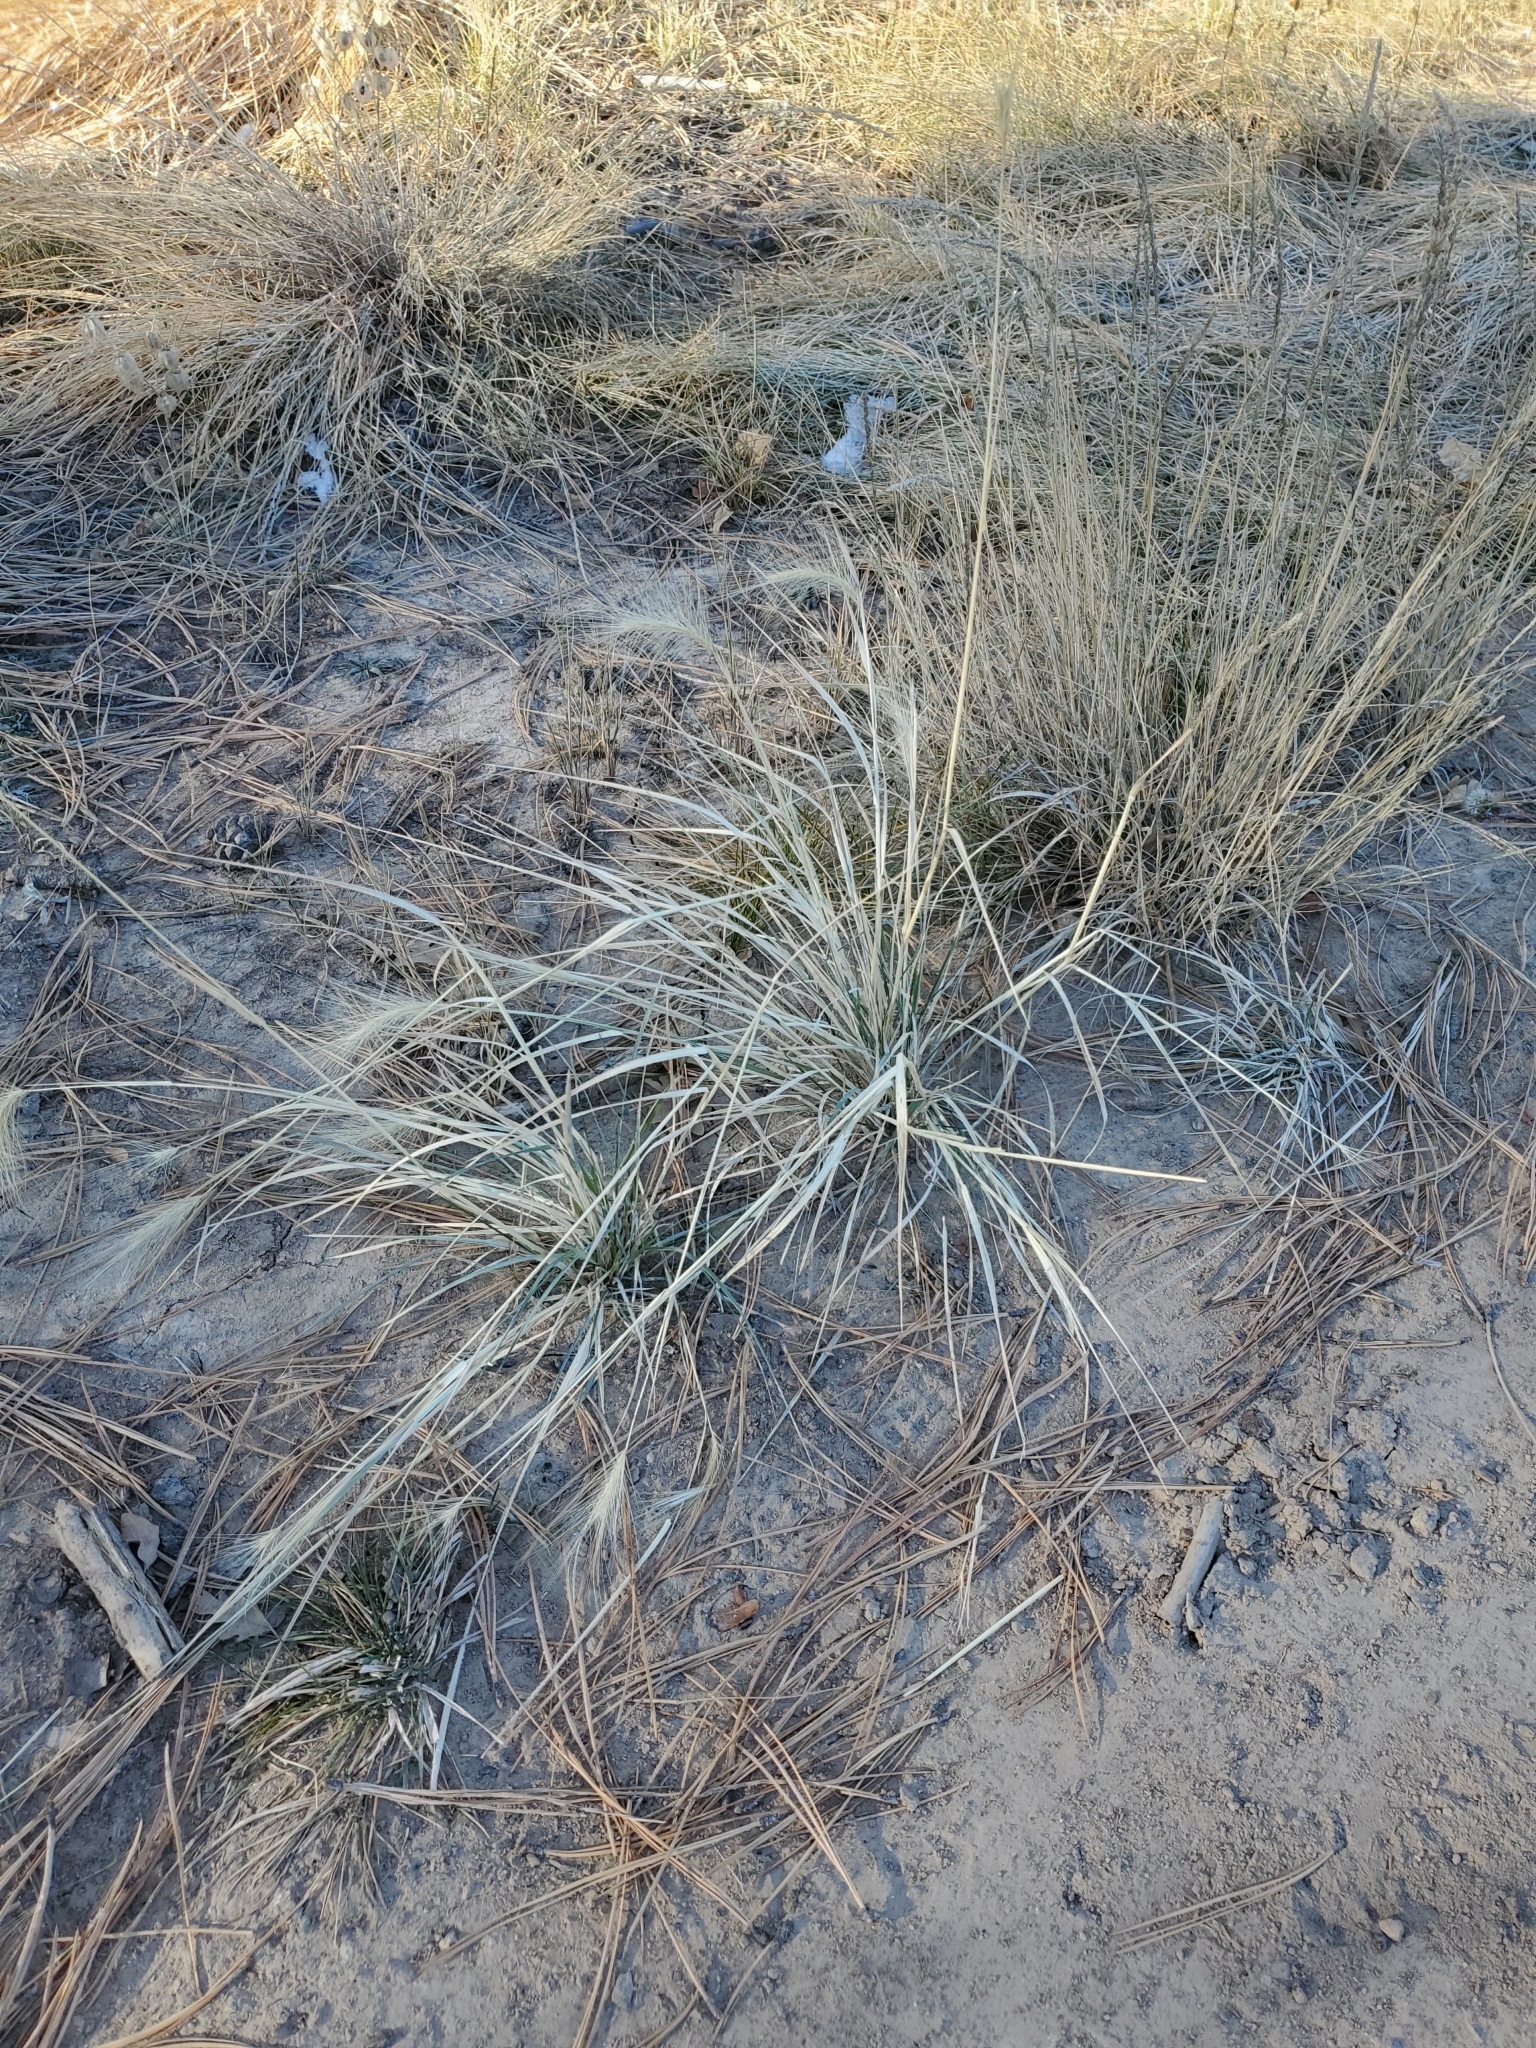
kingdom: Plantae
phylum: Tracheophyta
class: Liliopsida
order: Poales
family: Poaceae
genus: Hordeum
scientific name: Hordeum jubatum
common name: Foxtail barley
